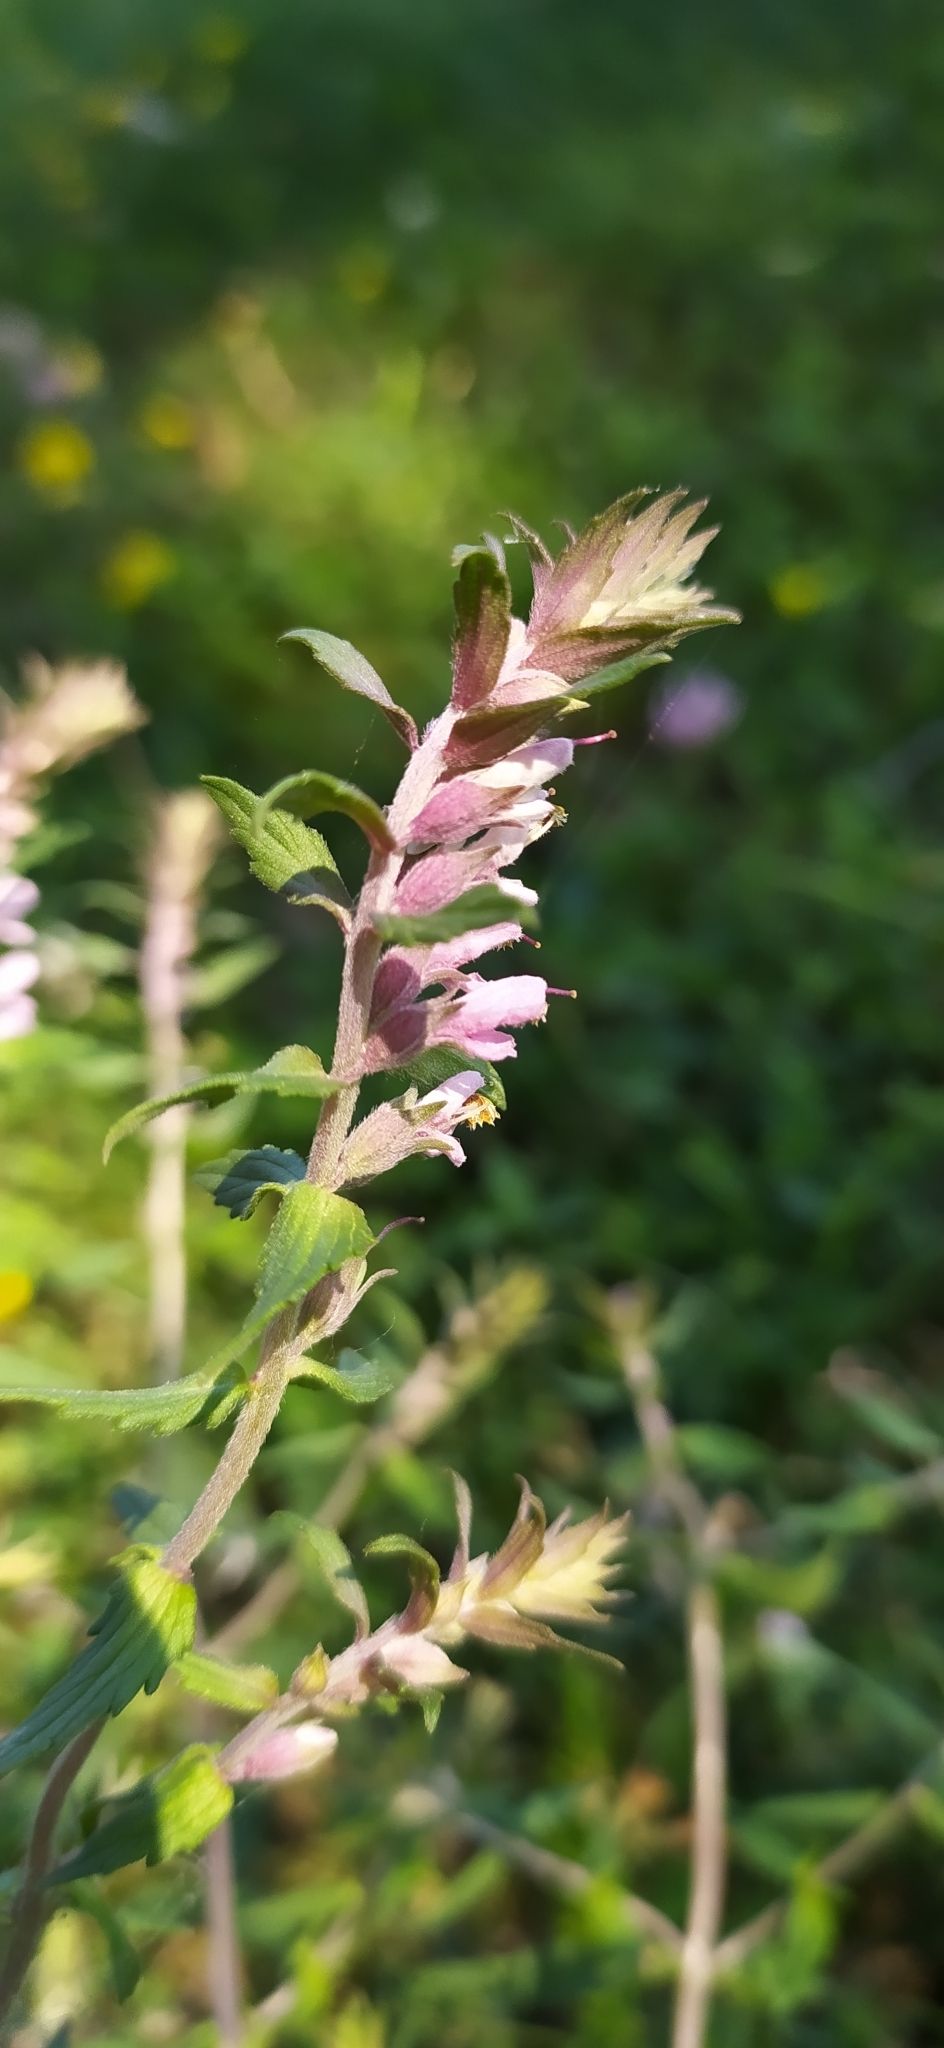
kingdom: Plantae
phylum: Tracheophyta
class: Magnoliopsida
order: Lamiales
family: Orobanchaceae
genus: Odontites
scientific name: Odontites vulgaris
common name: Broomrape
